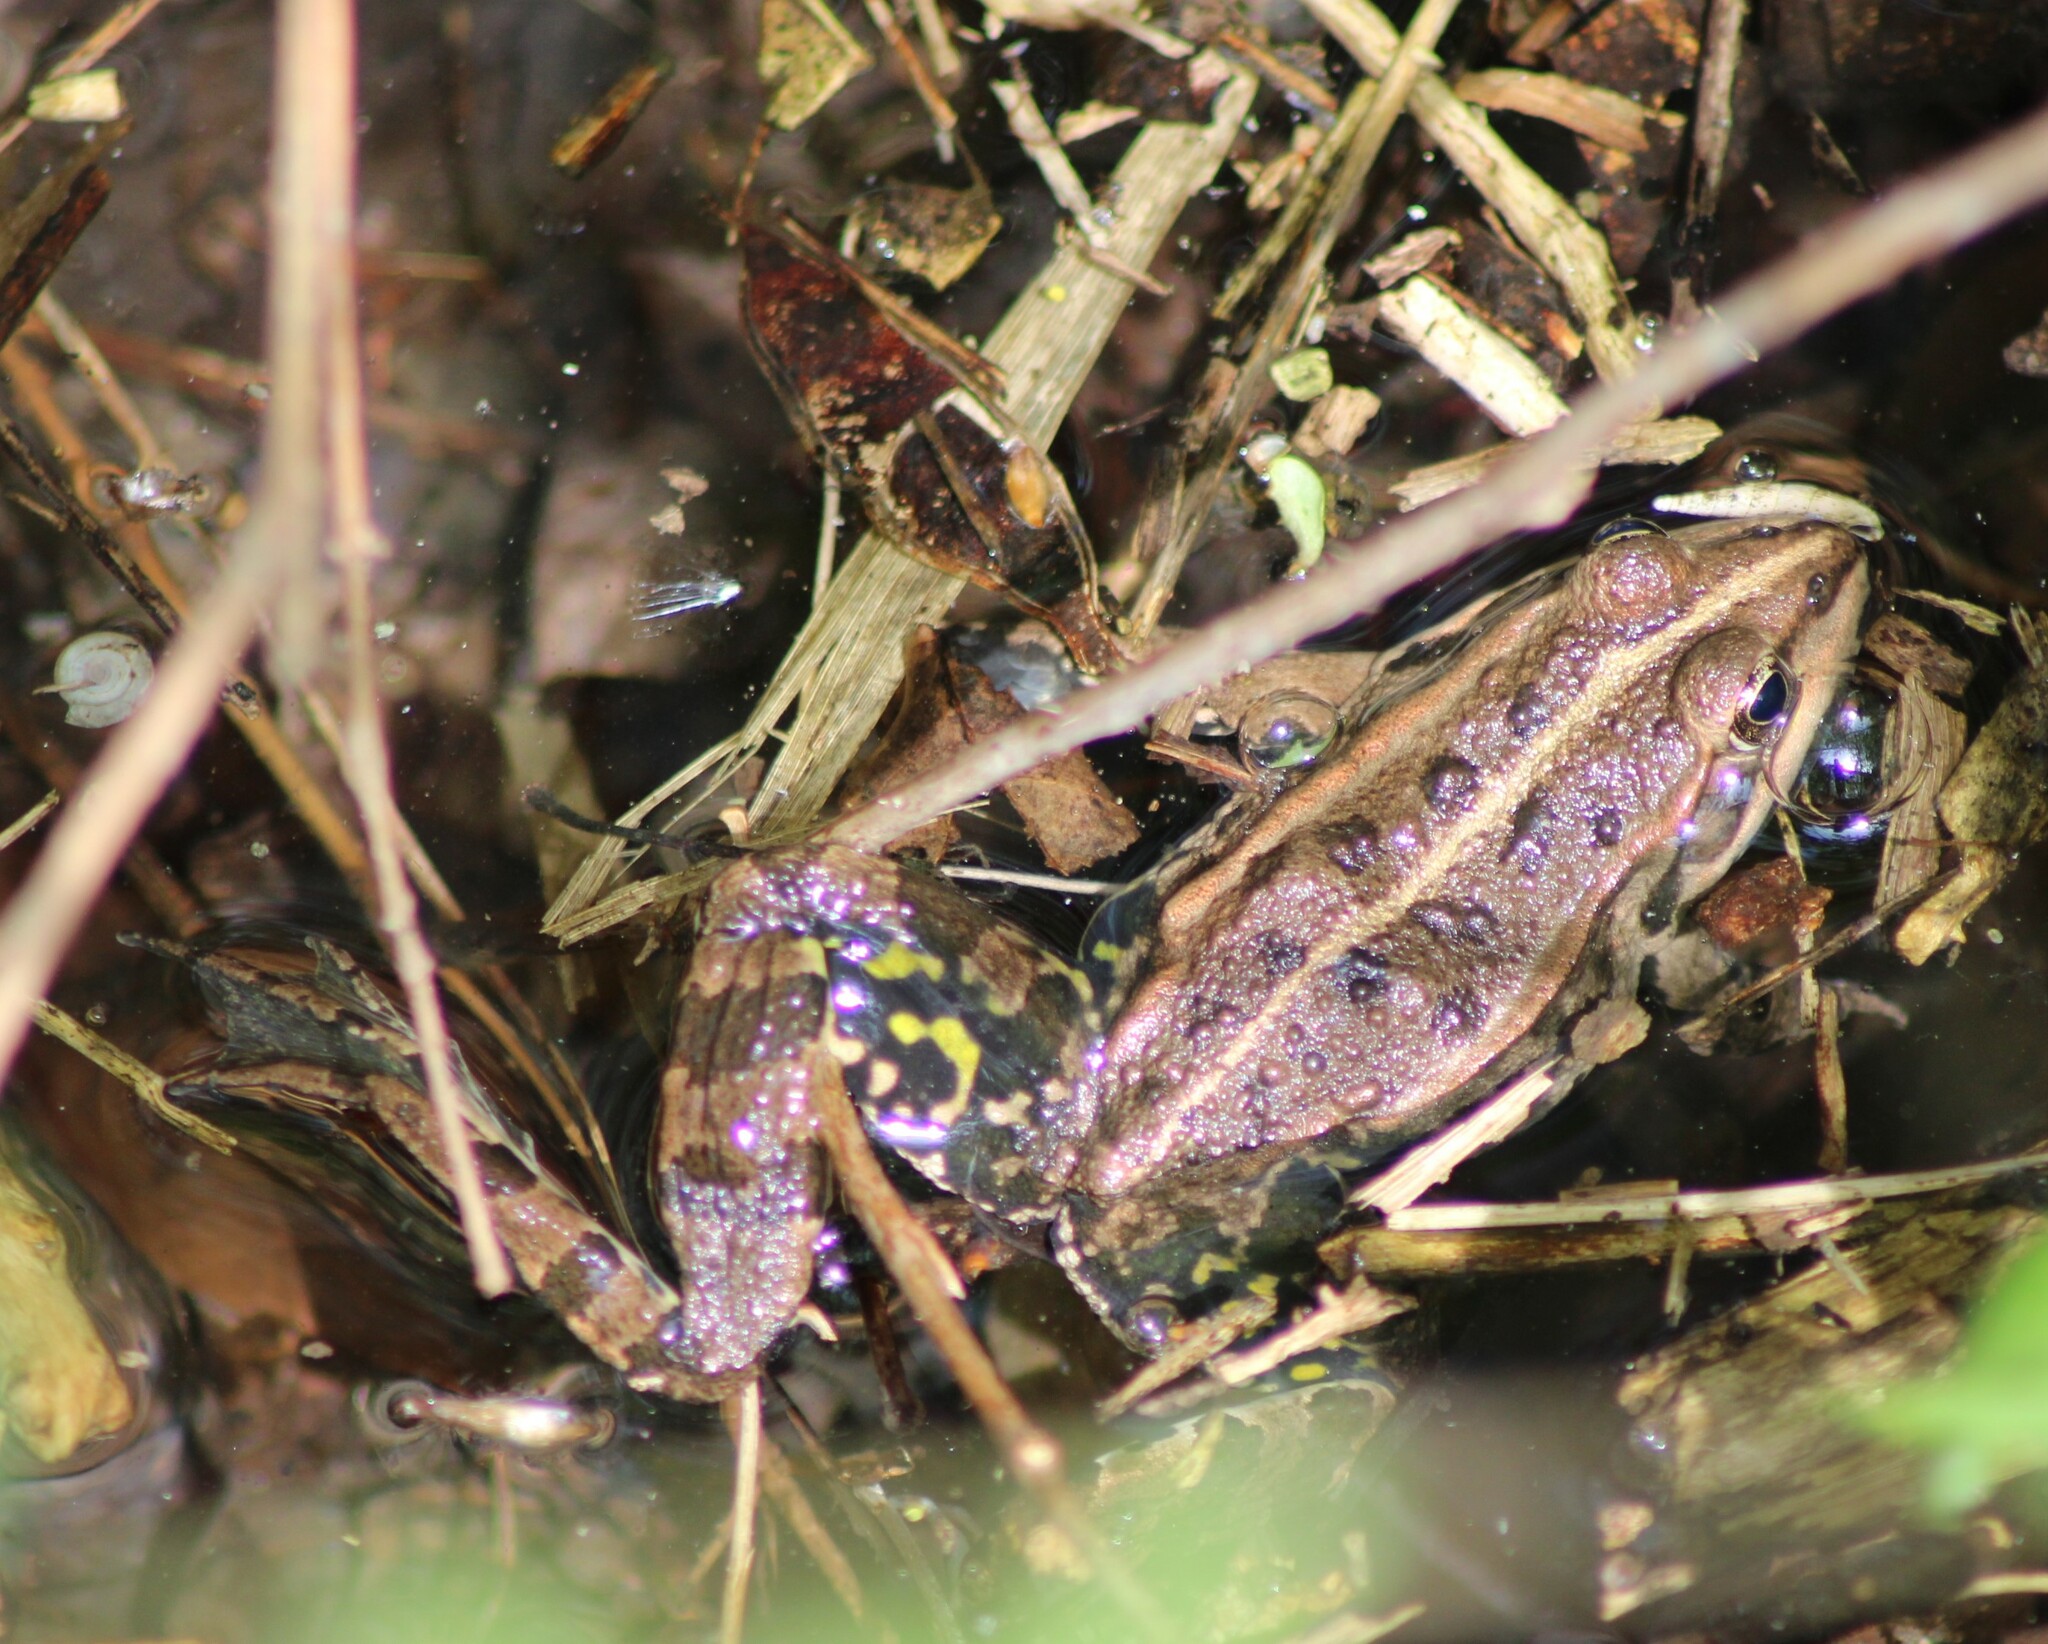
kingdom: Animalia
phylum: Chordata
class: Amphibia
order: Anura
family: Ranidae
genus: Pelophylax
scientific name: Pelophylax
